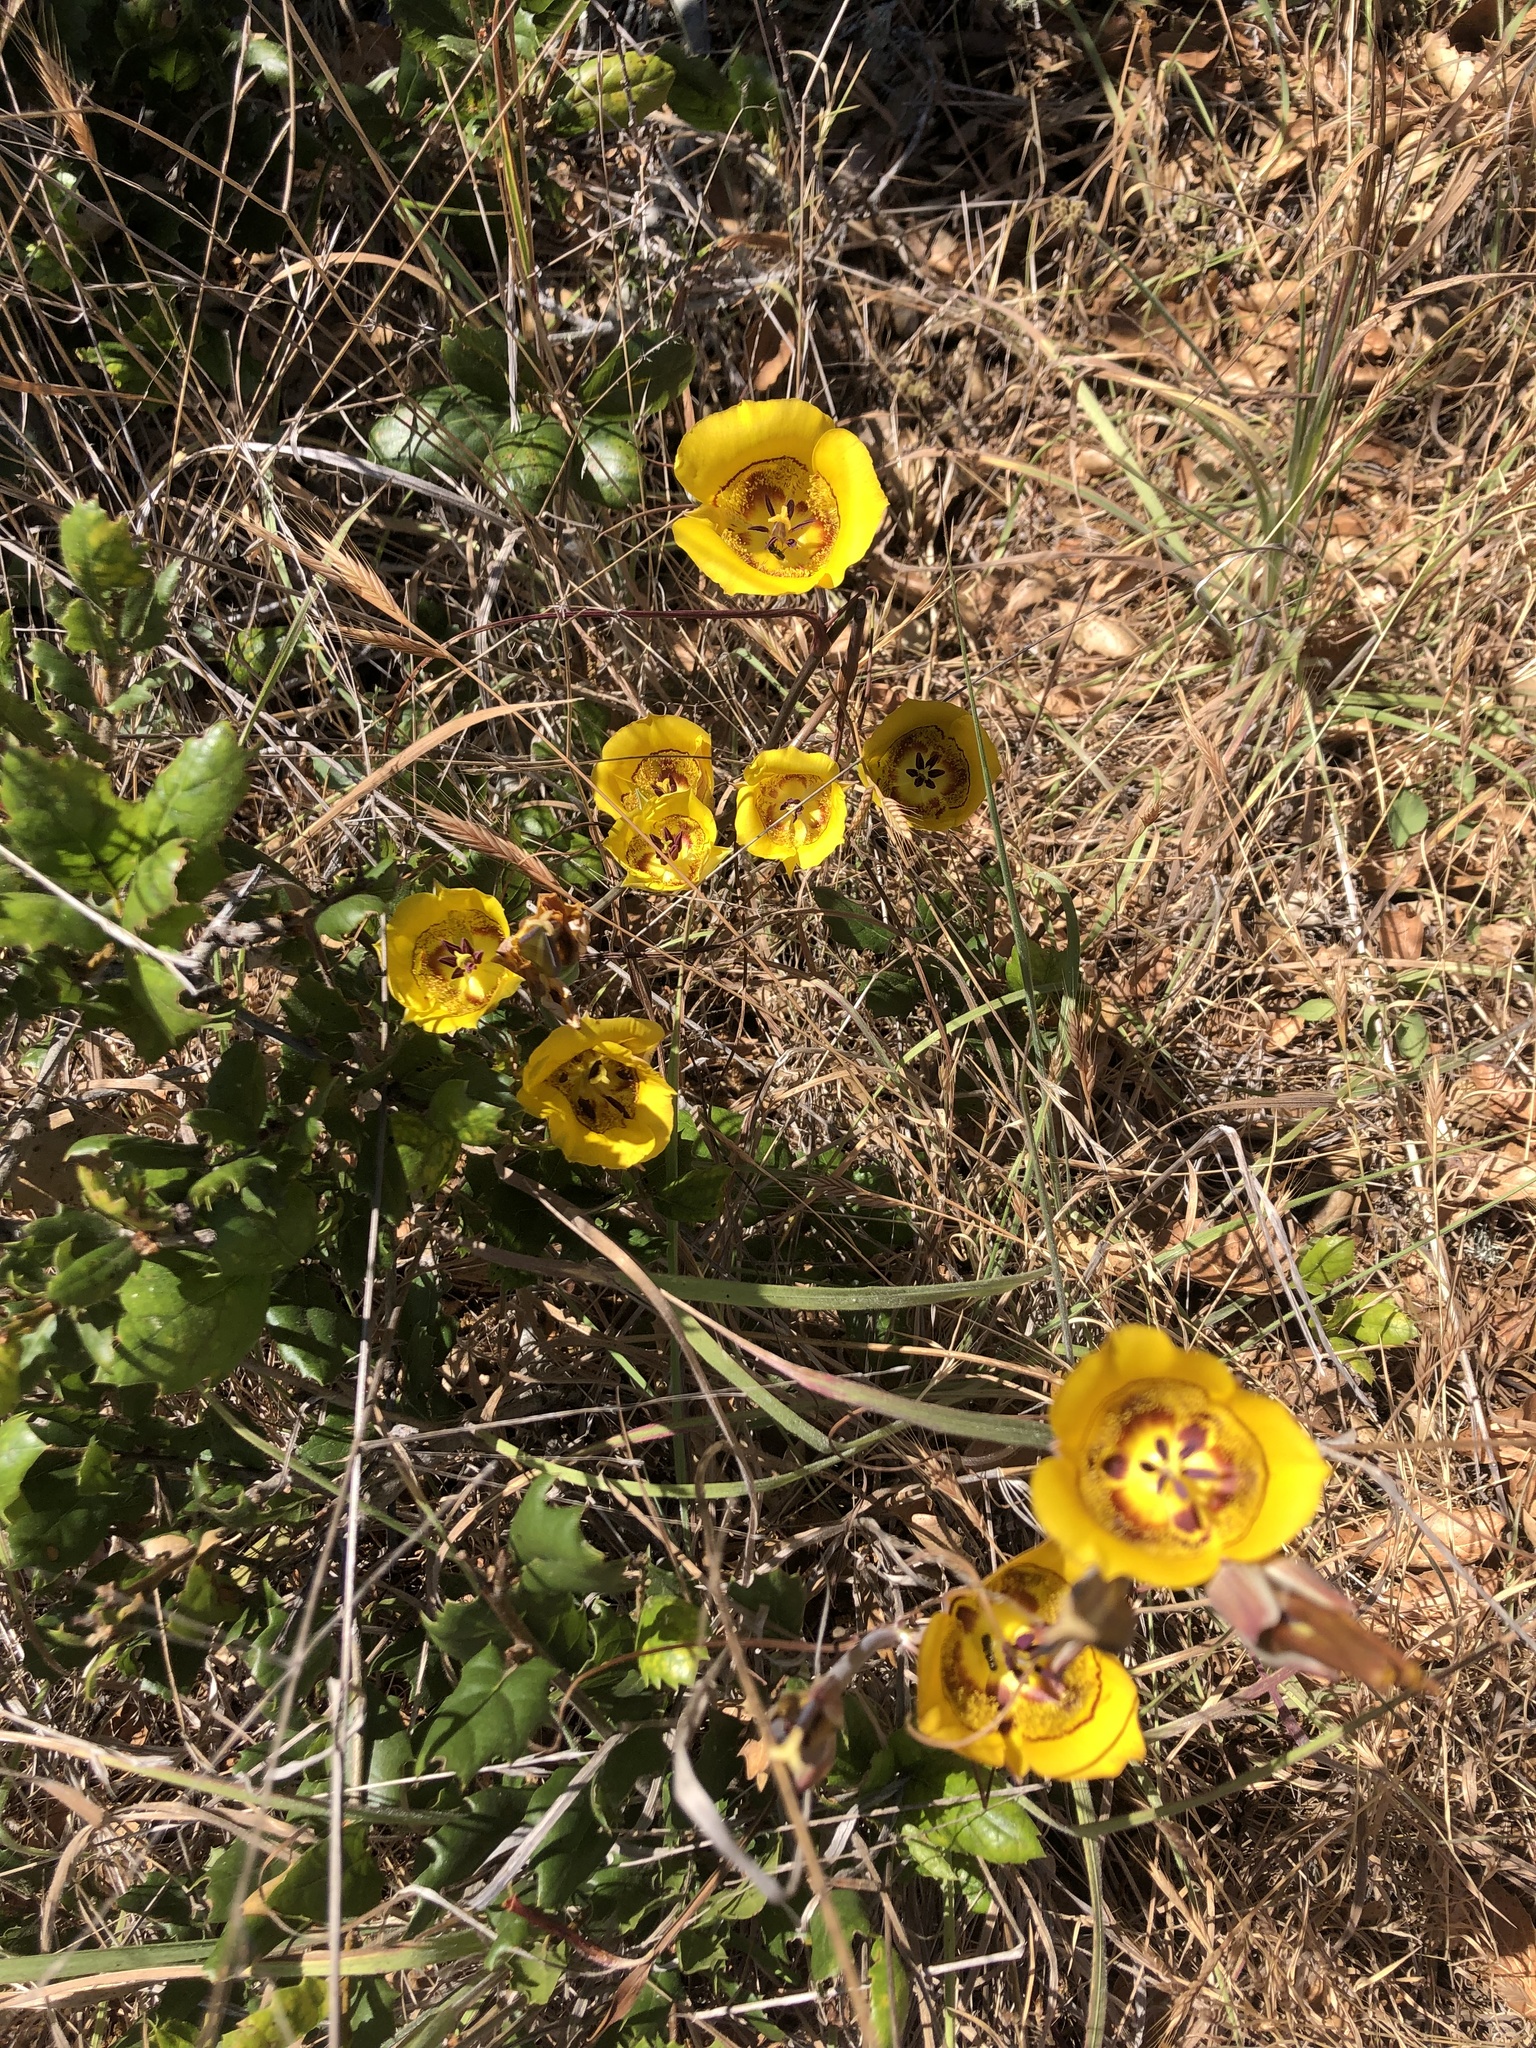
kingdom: Plantae
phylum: Tracheophyta
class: Liliopsida
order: Liliales
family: Liliaceae
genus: Calochortus
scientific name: Calochortus clavatus
